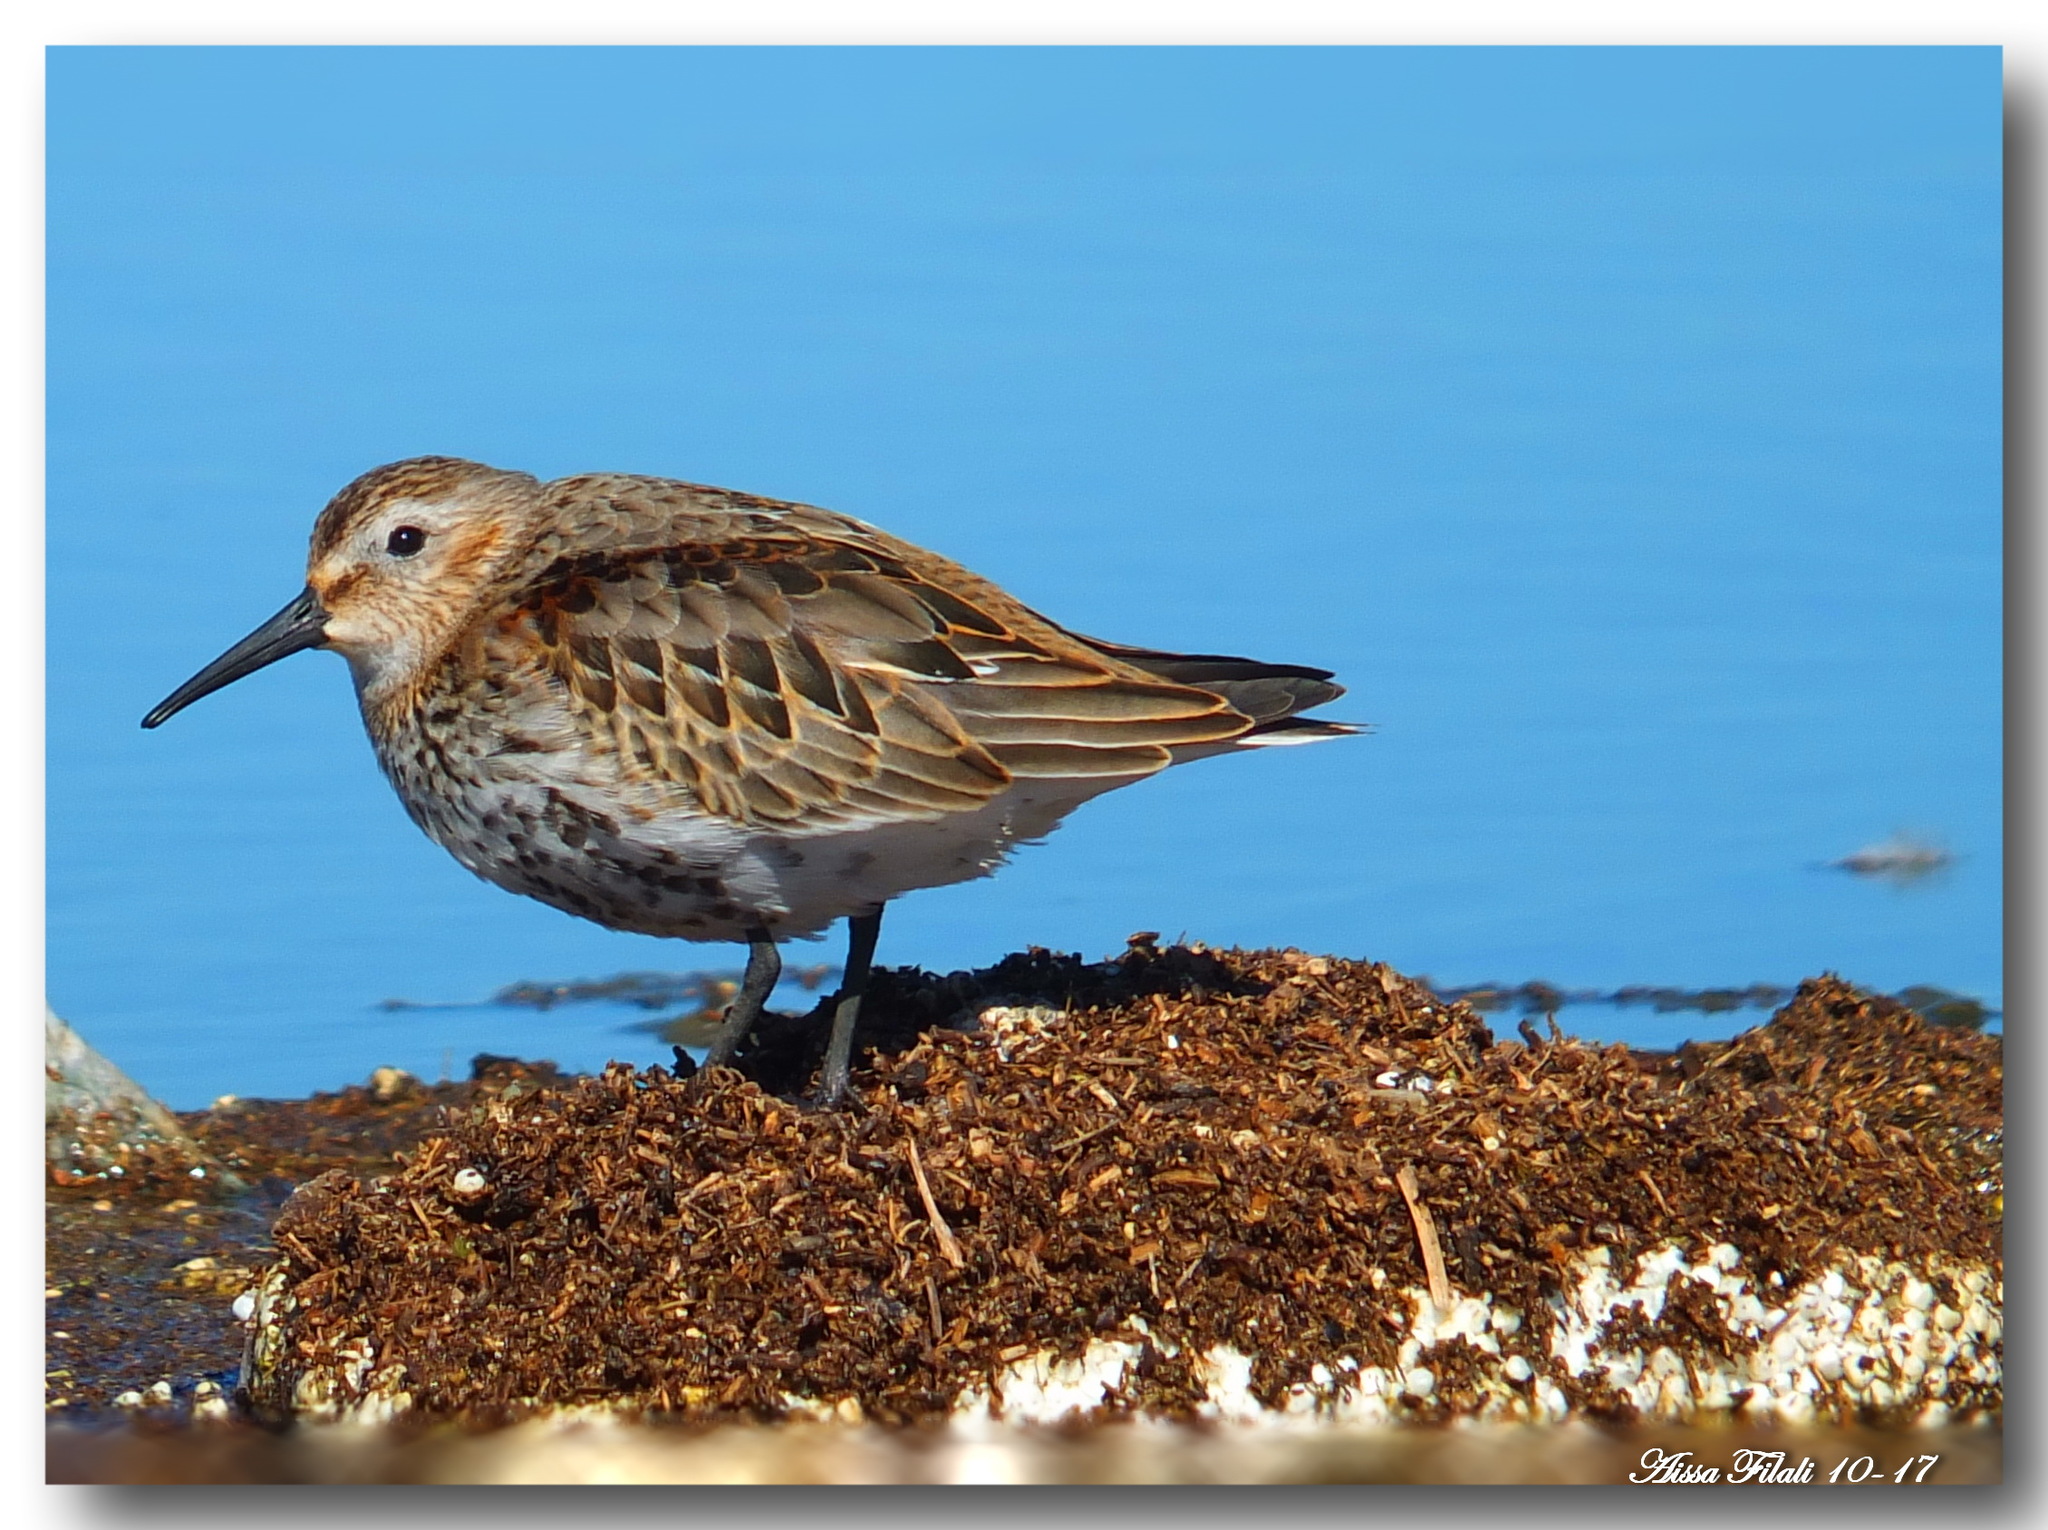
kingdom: Animalia
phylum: Chordata
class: Aves
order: Charadriiformes
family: Scolopacidae
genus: Calidris
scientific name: Calidris alpina
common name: Dunlin
